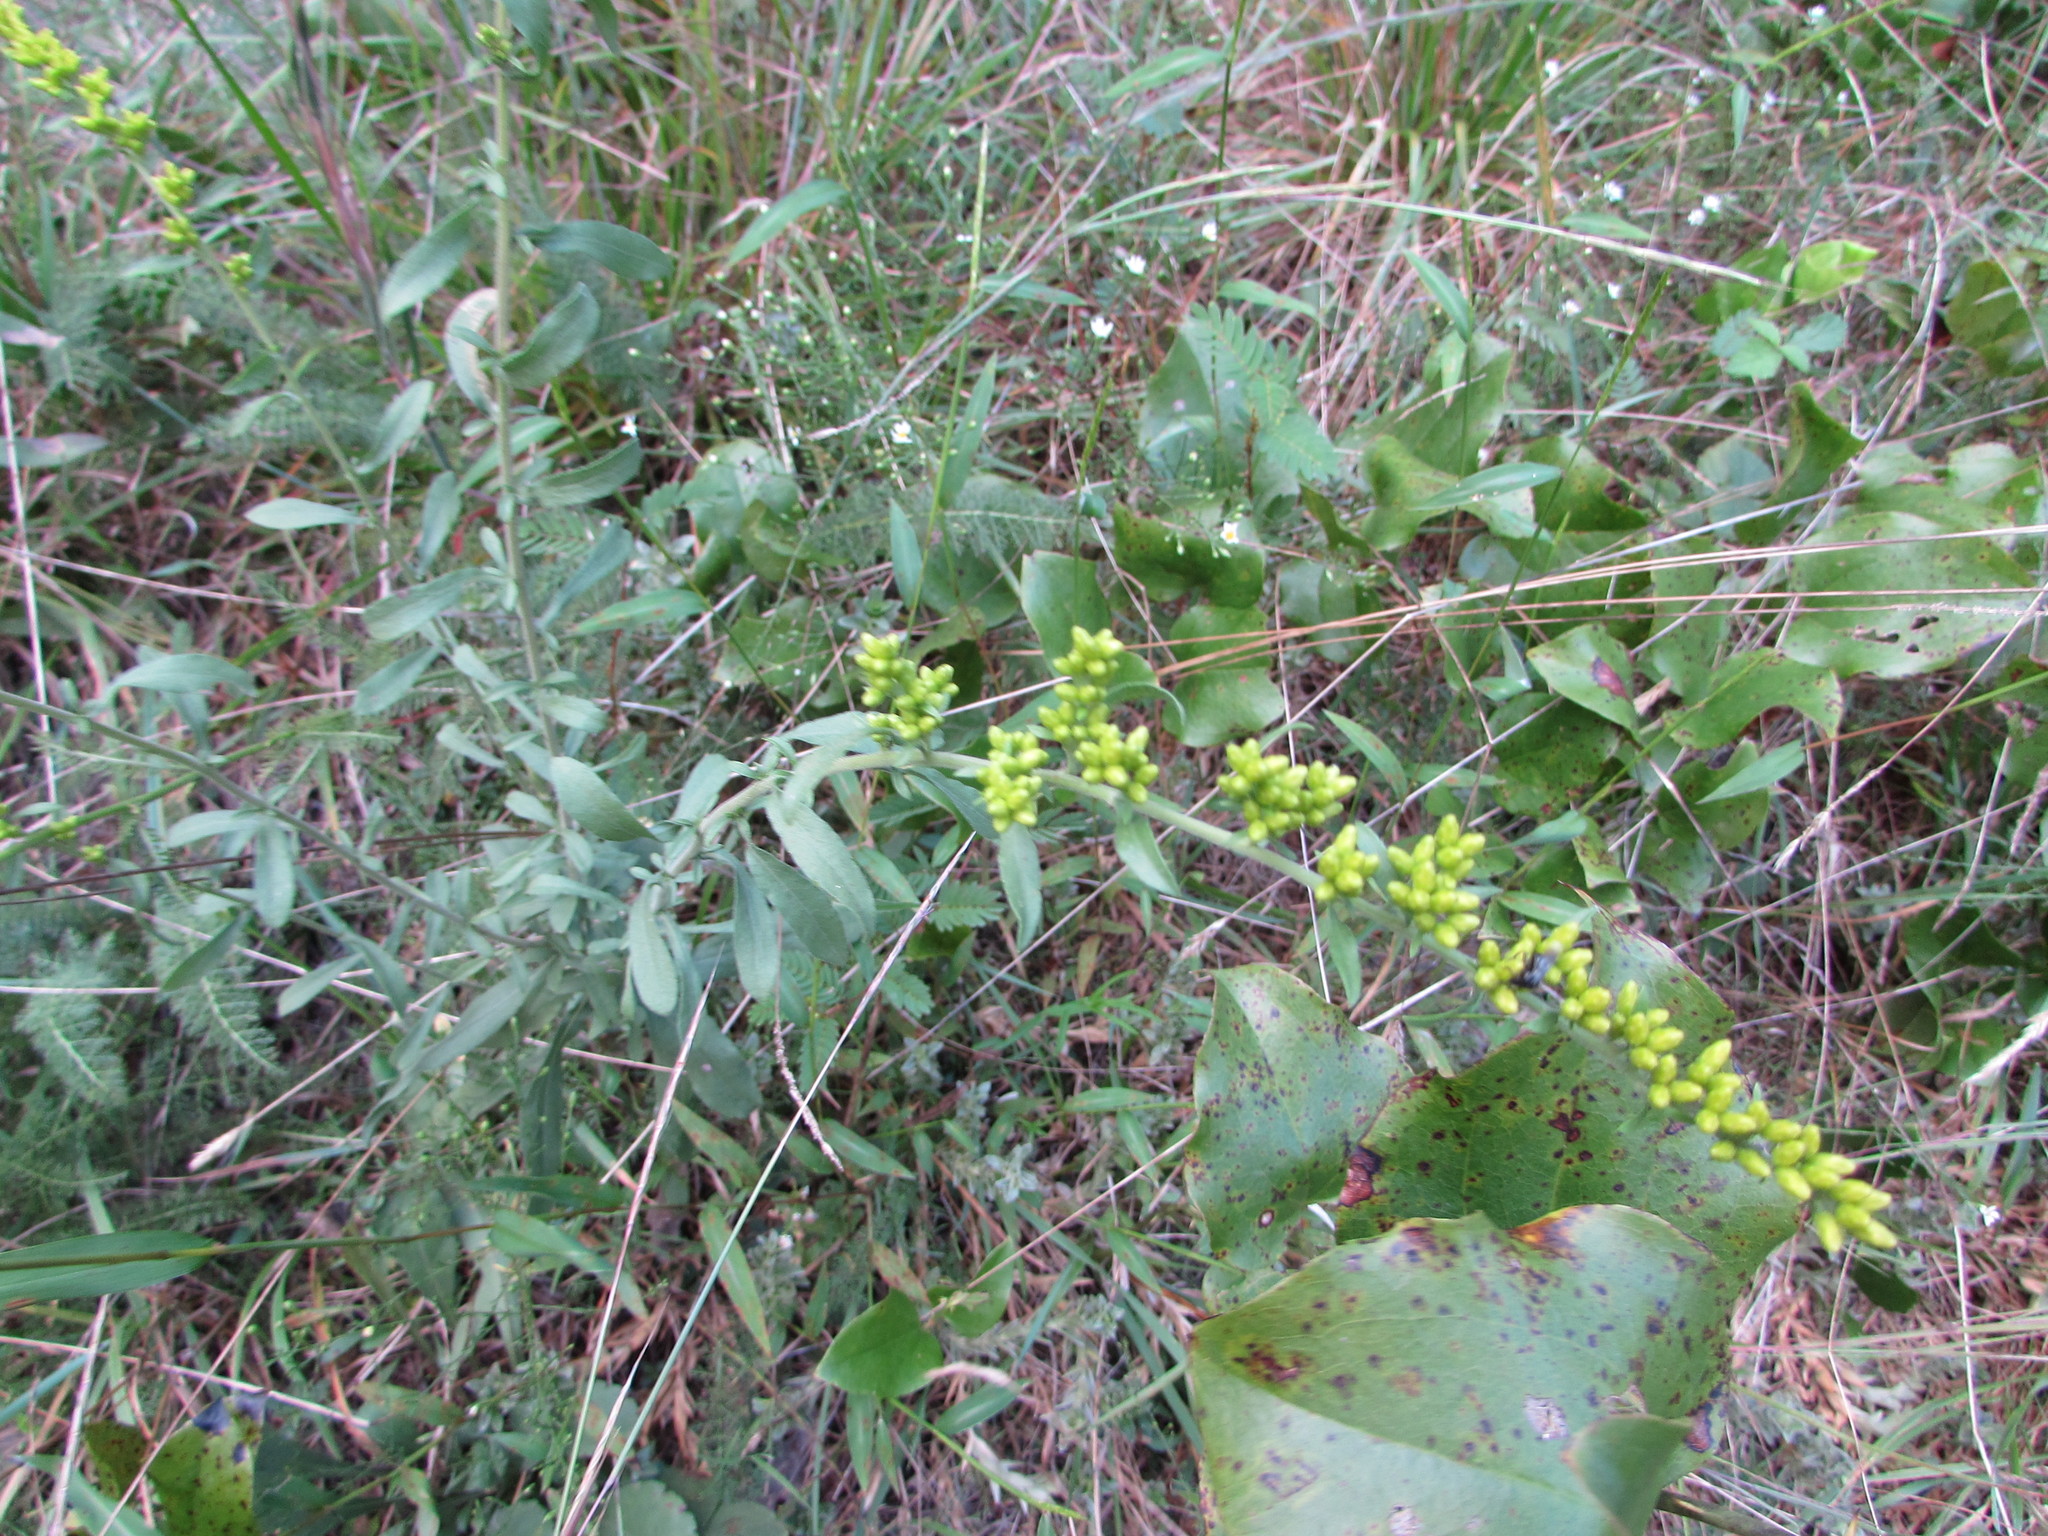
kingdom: Plantae
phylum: Tracheophyta
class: Magnoliopsida
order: Asterales
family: Asteraceae
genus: Solidago
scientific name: Solidago nemoralis
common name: Grey goldenrod
